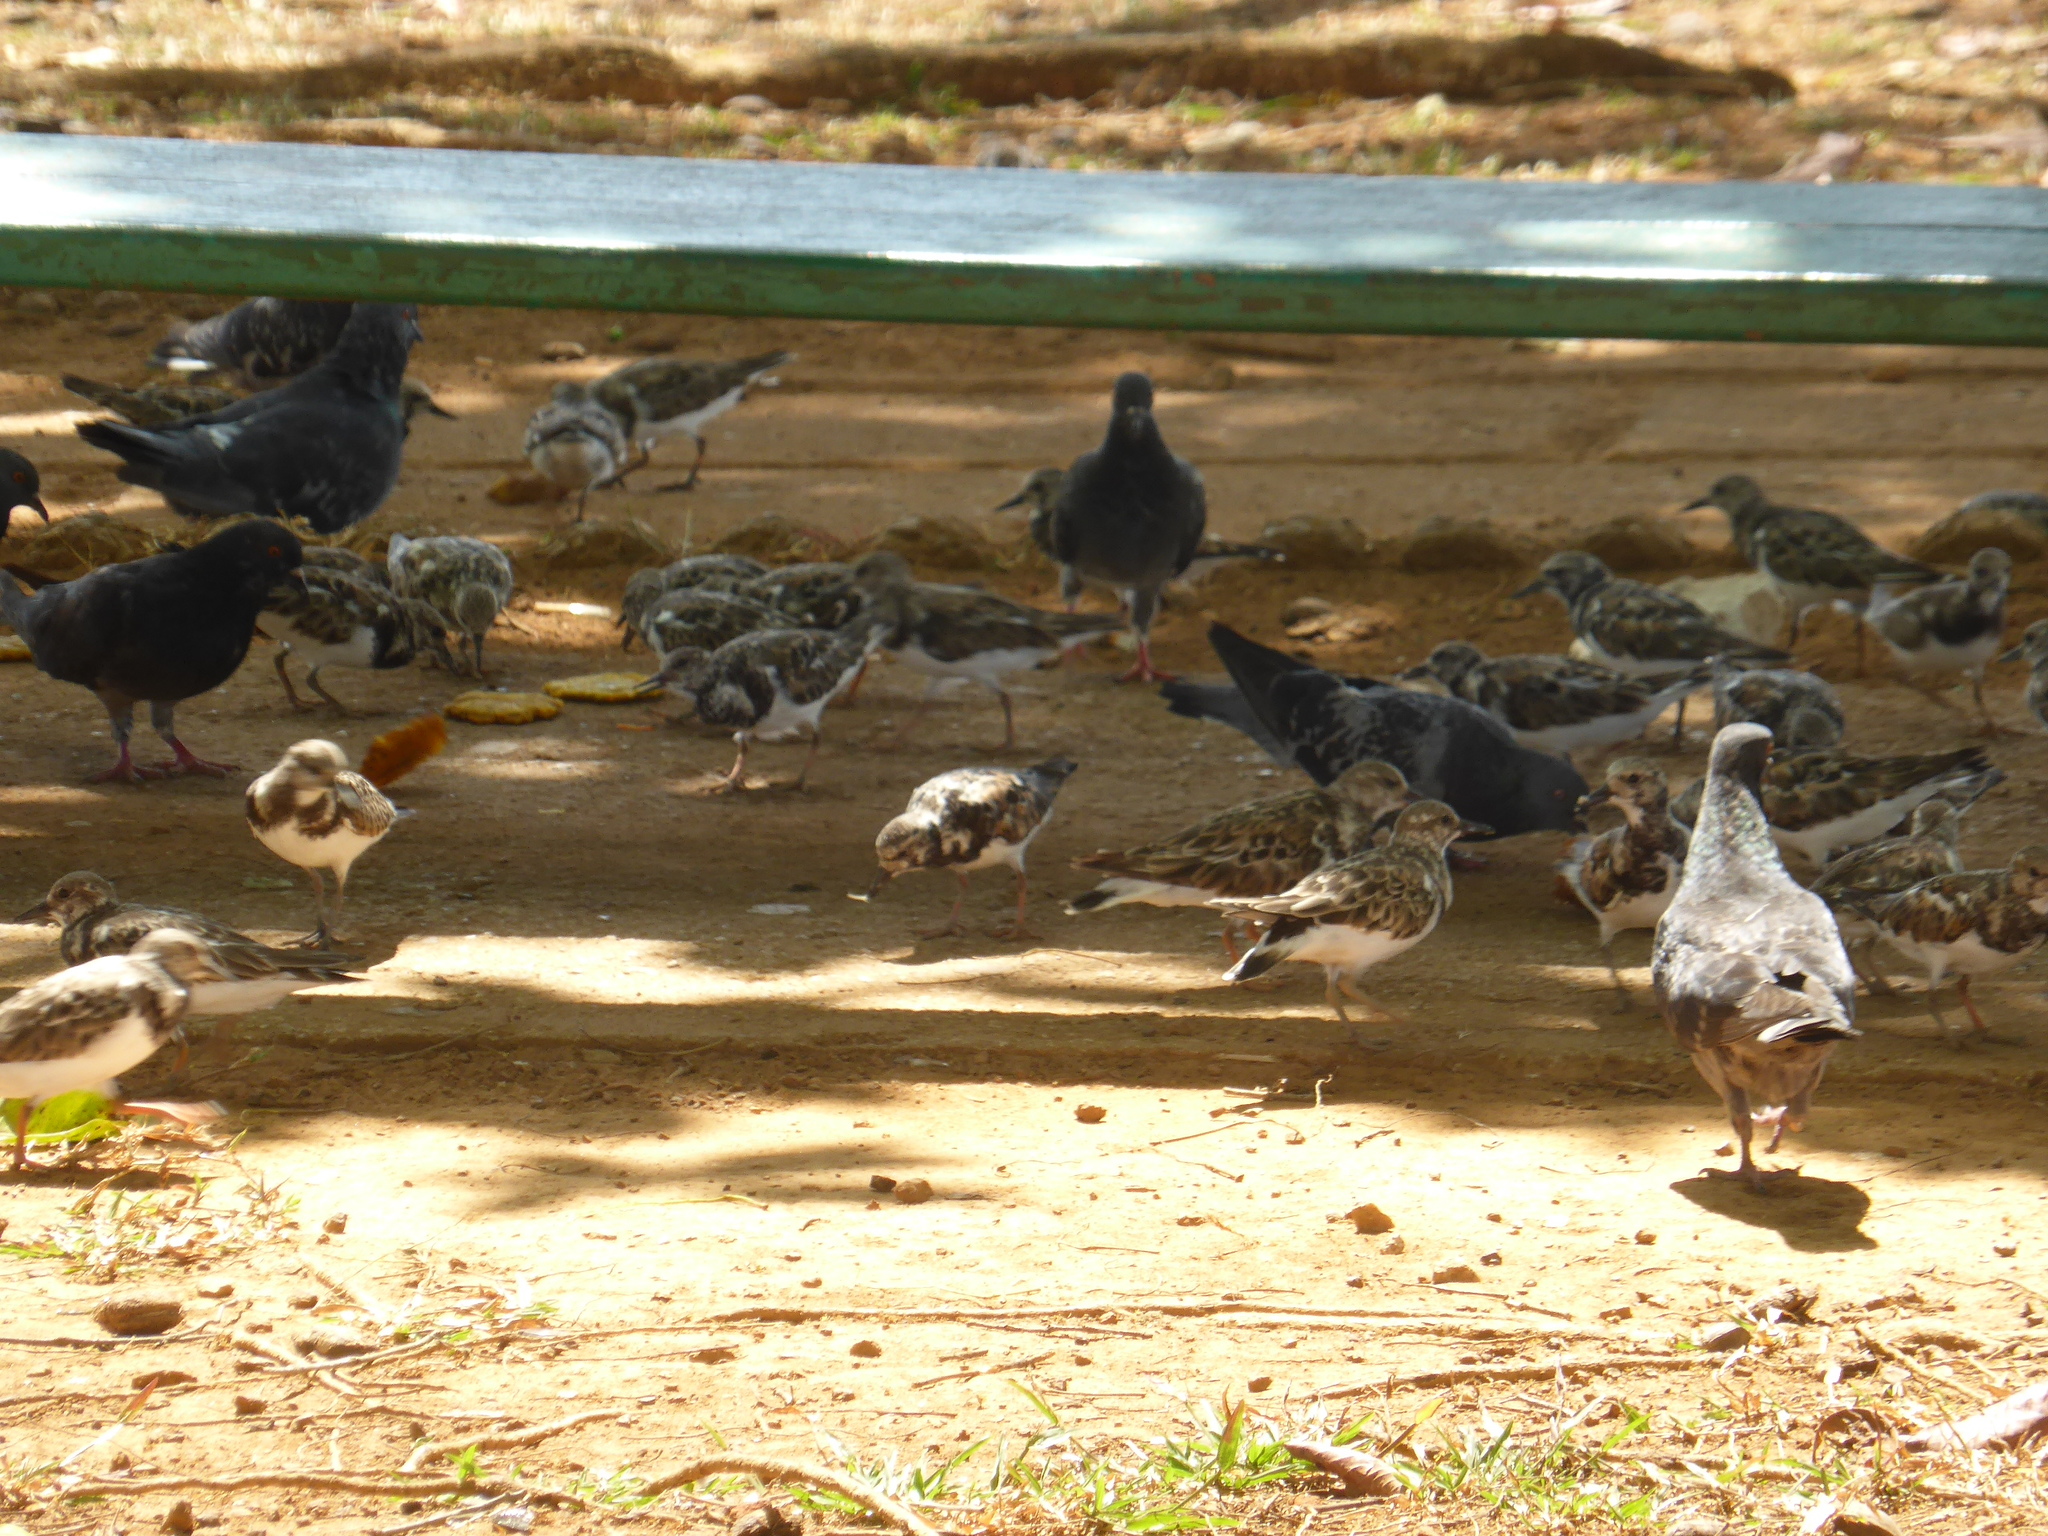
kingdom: Animalia
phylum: Chordata
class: Aves
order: Charadriiformes
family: Scolopacidae
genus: Arenaria
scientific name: Arenaria interpres
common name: Ruddy turnstone
